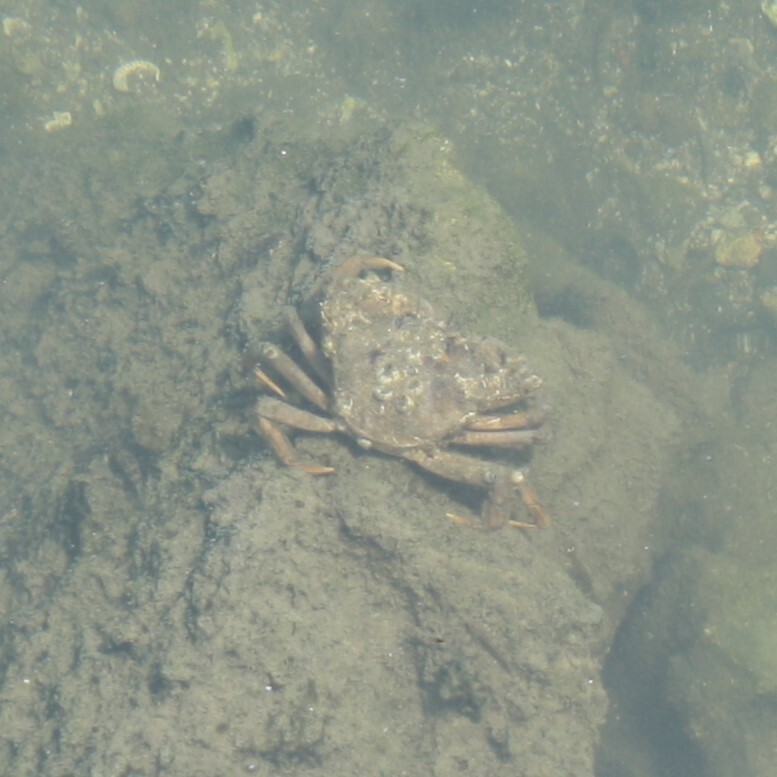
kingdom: Animalia
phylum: Arthropoda
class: Malacostraca
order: Decapoda
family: Carcinidae
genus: Carcinus
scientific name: Carcinus aestuarii
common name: Mediterranean green crab
